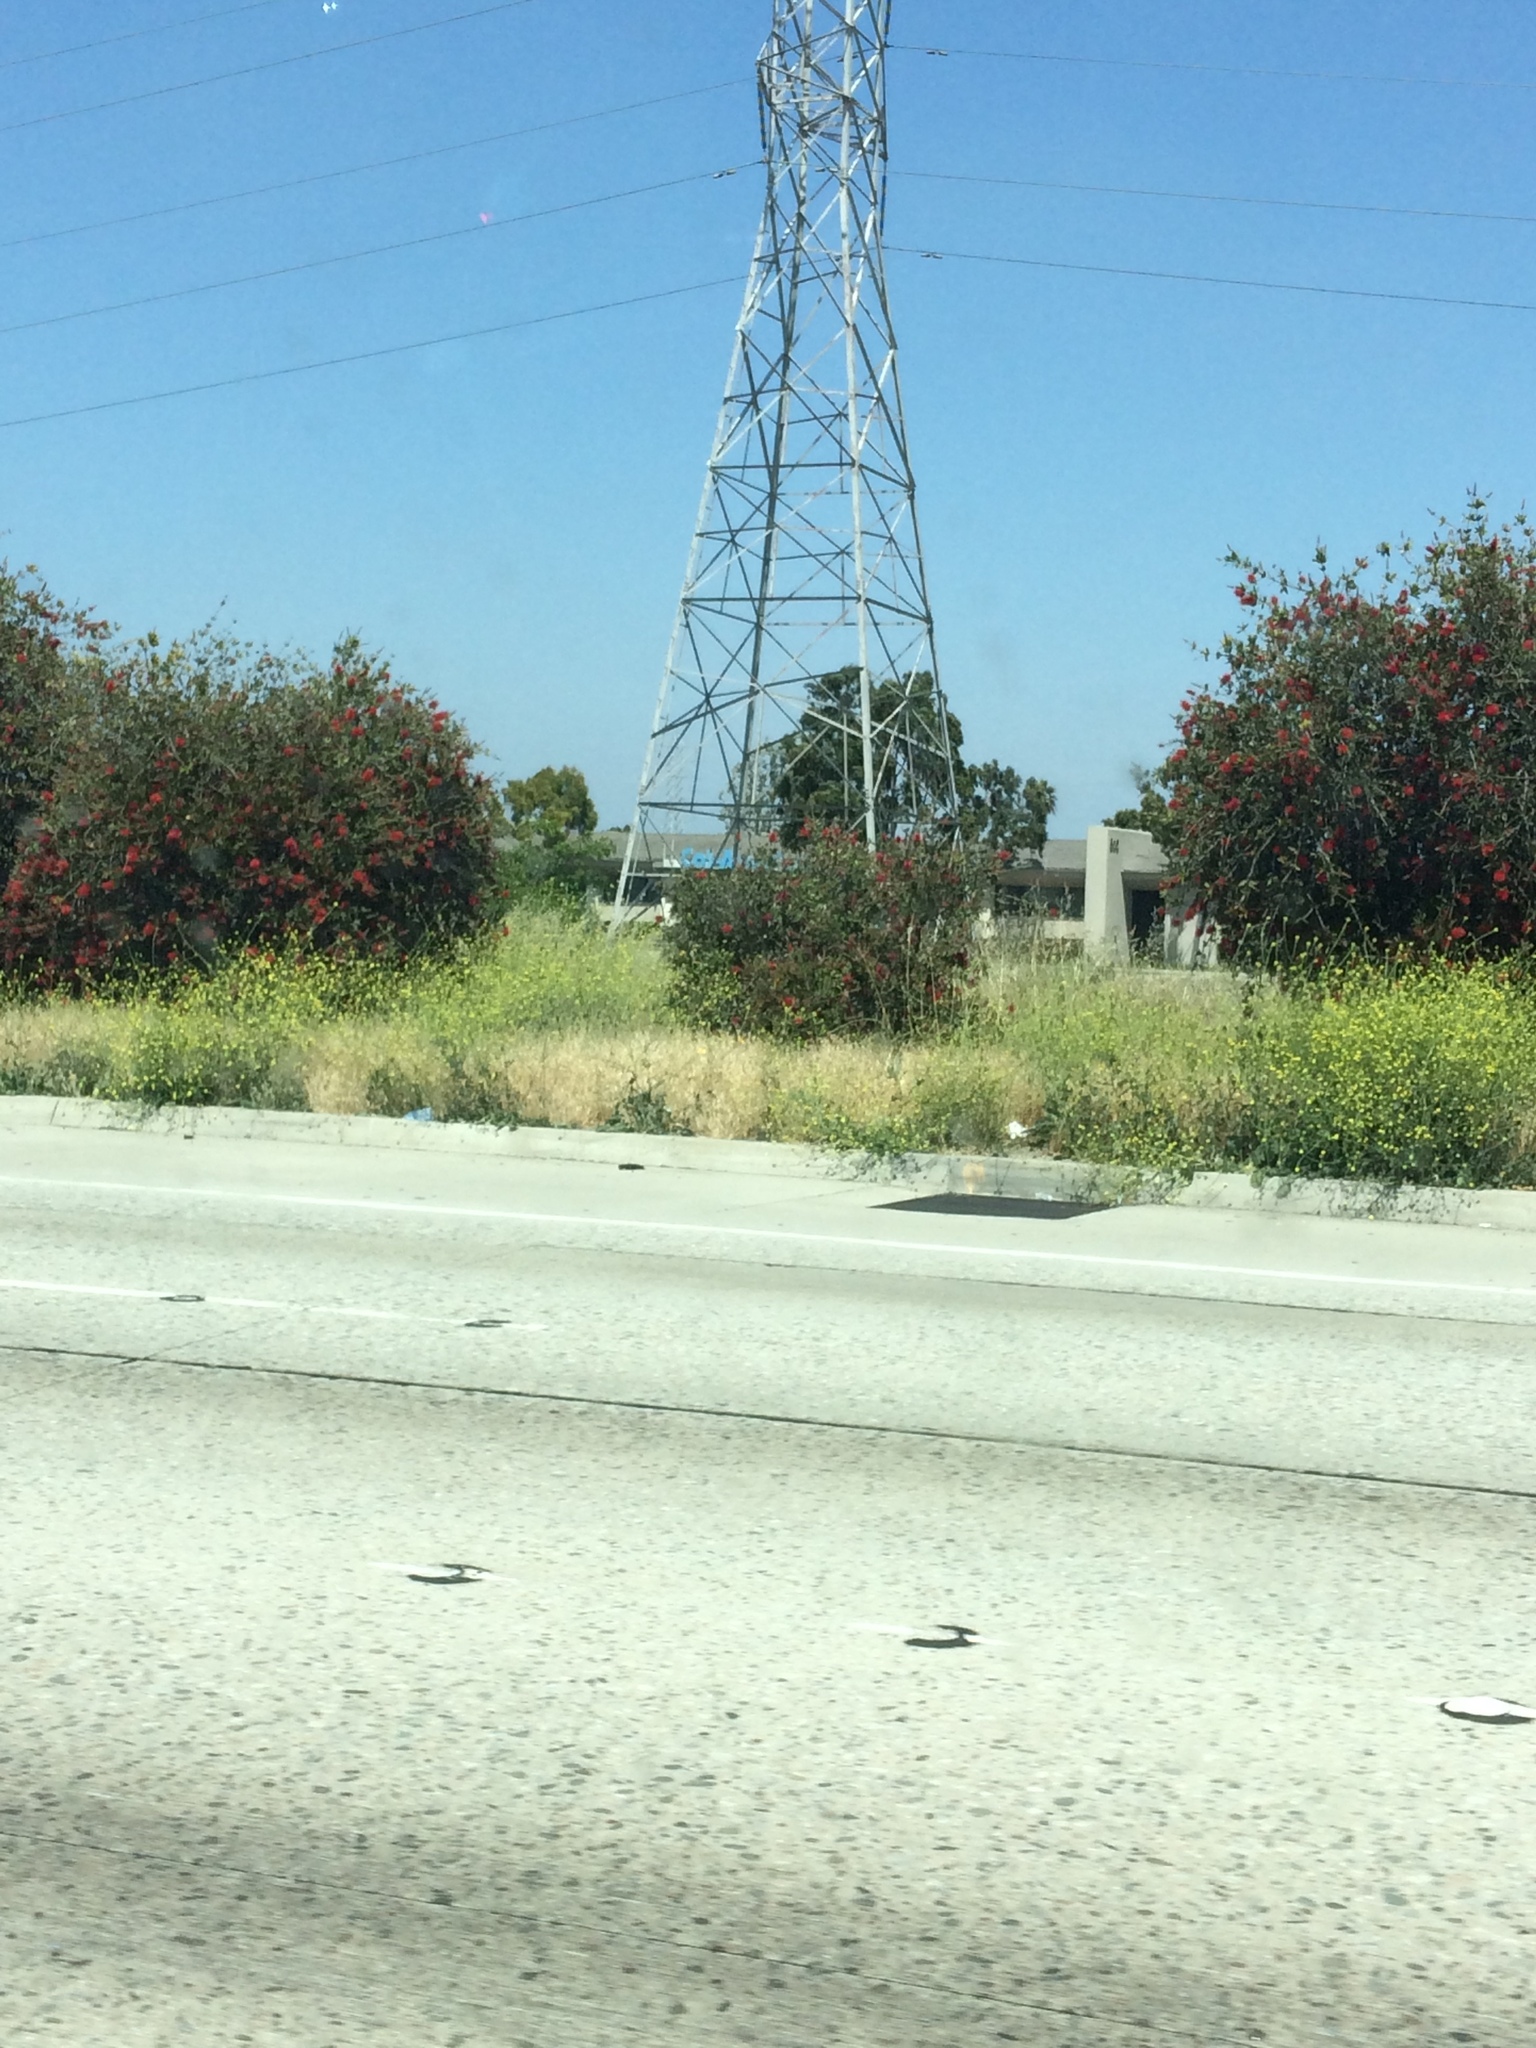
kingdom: Plantae
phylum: Tracheophyta
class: Magnoliopsida
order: Brassicales
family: Brassicaceae
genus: Hirschfeldia
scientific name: Hirschfeldia incana
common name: Hoary mustard
